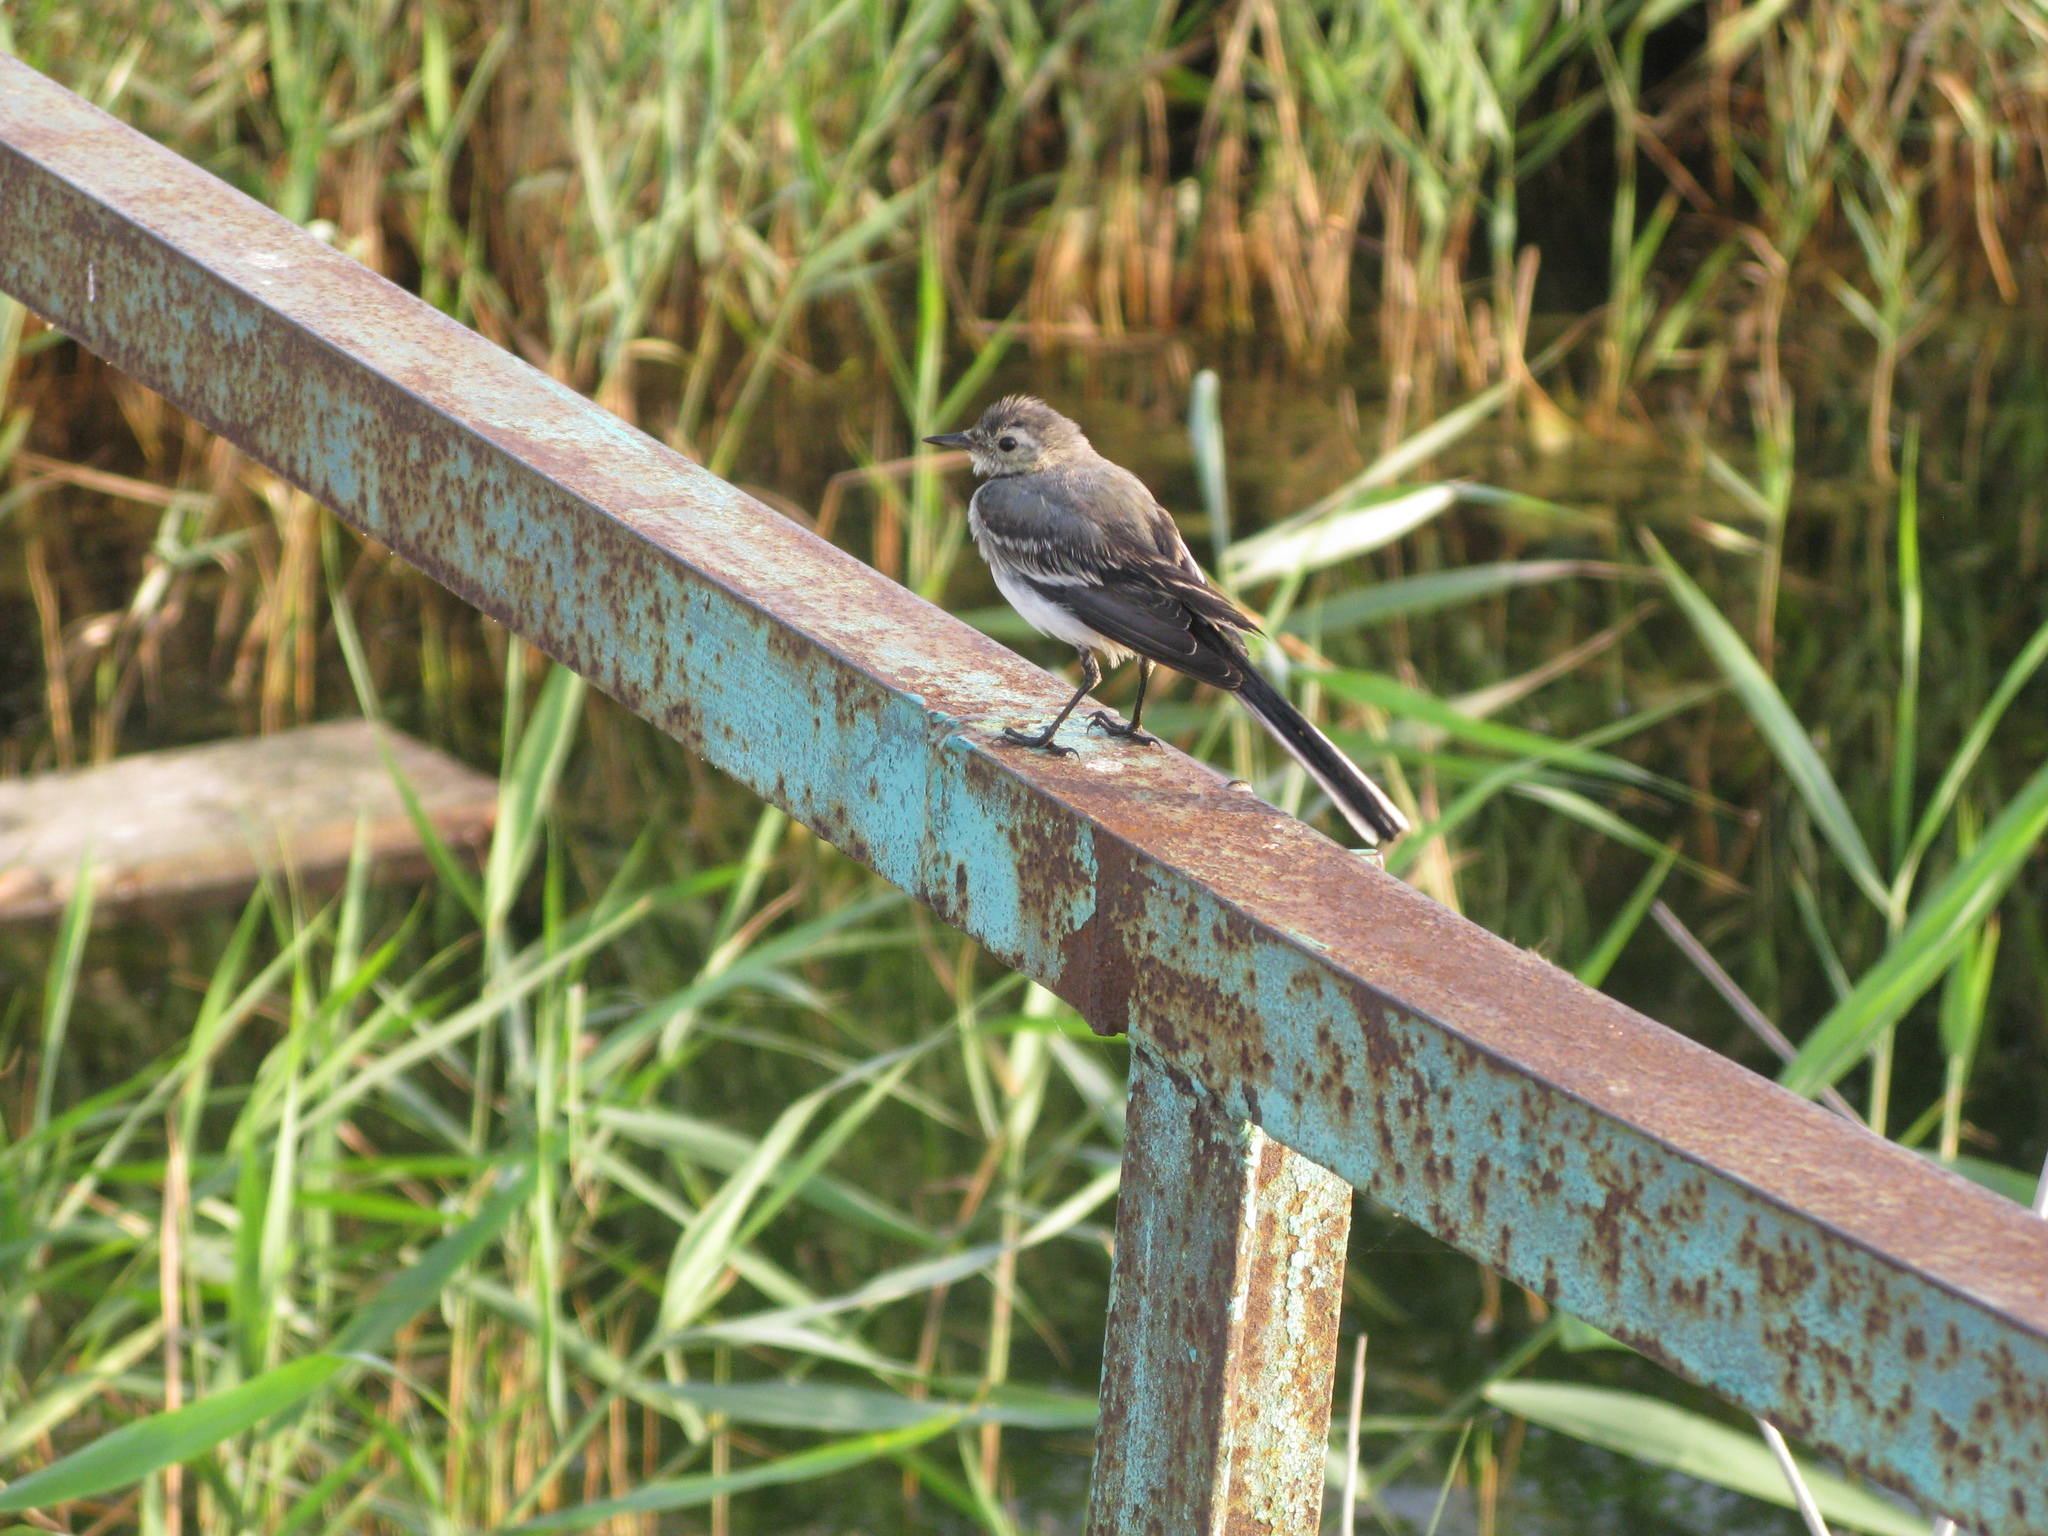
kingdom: Animalia
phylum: Chordata
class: Aves
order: Passeriformes
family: Motacillidae
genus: Motacilla
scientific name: Motacilla alba
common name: White wagtail
